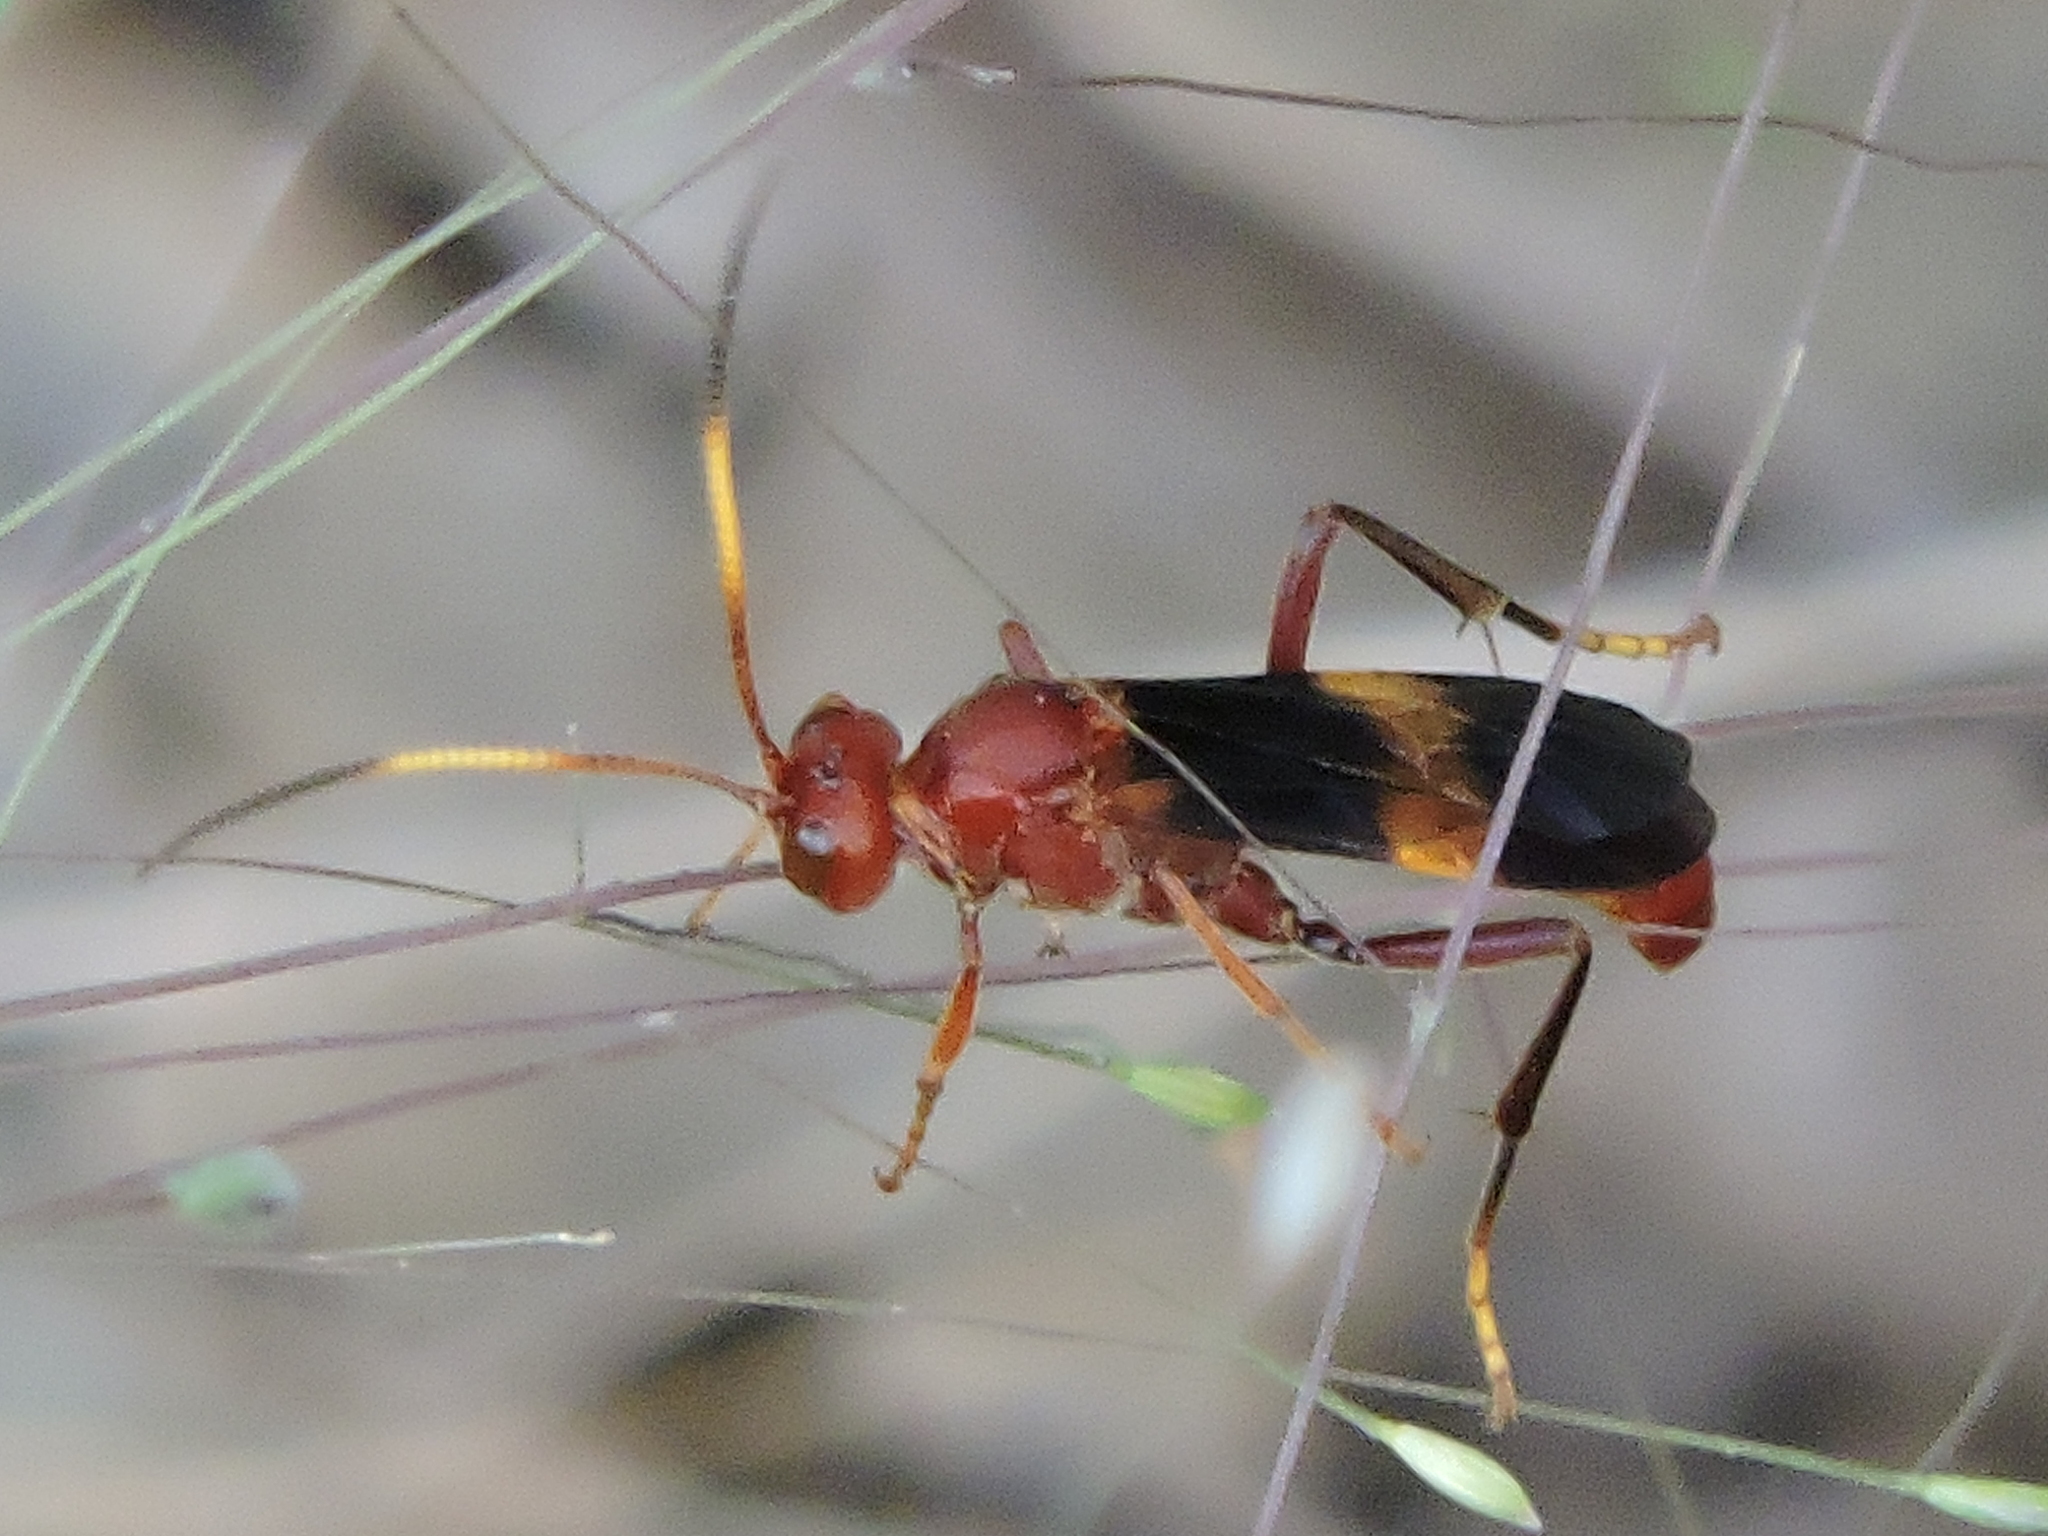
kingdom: Animalia
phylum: Arthropoda
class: Insecta
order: Hymenoptera
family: Ichneumonidae
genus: Trogomorpha
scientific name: Trogomorpha arrogans
